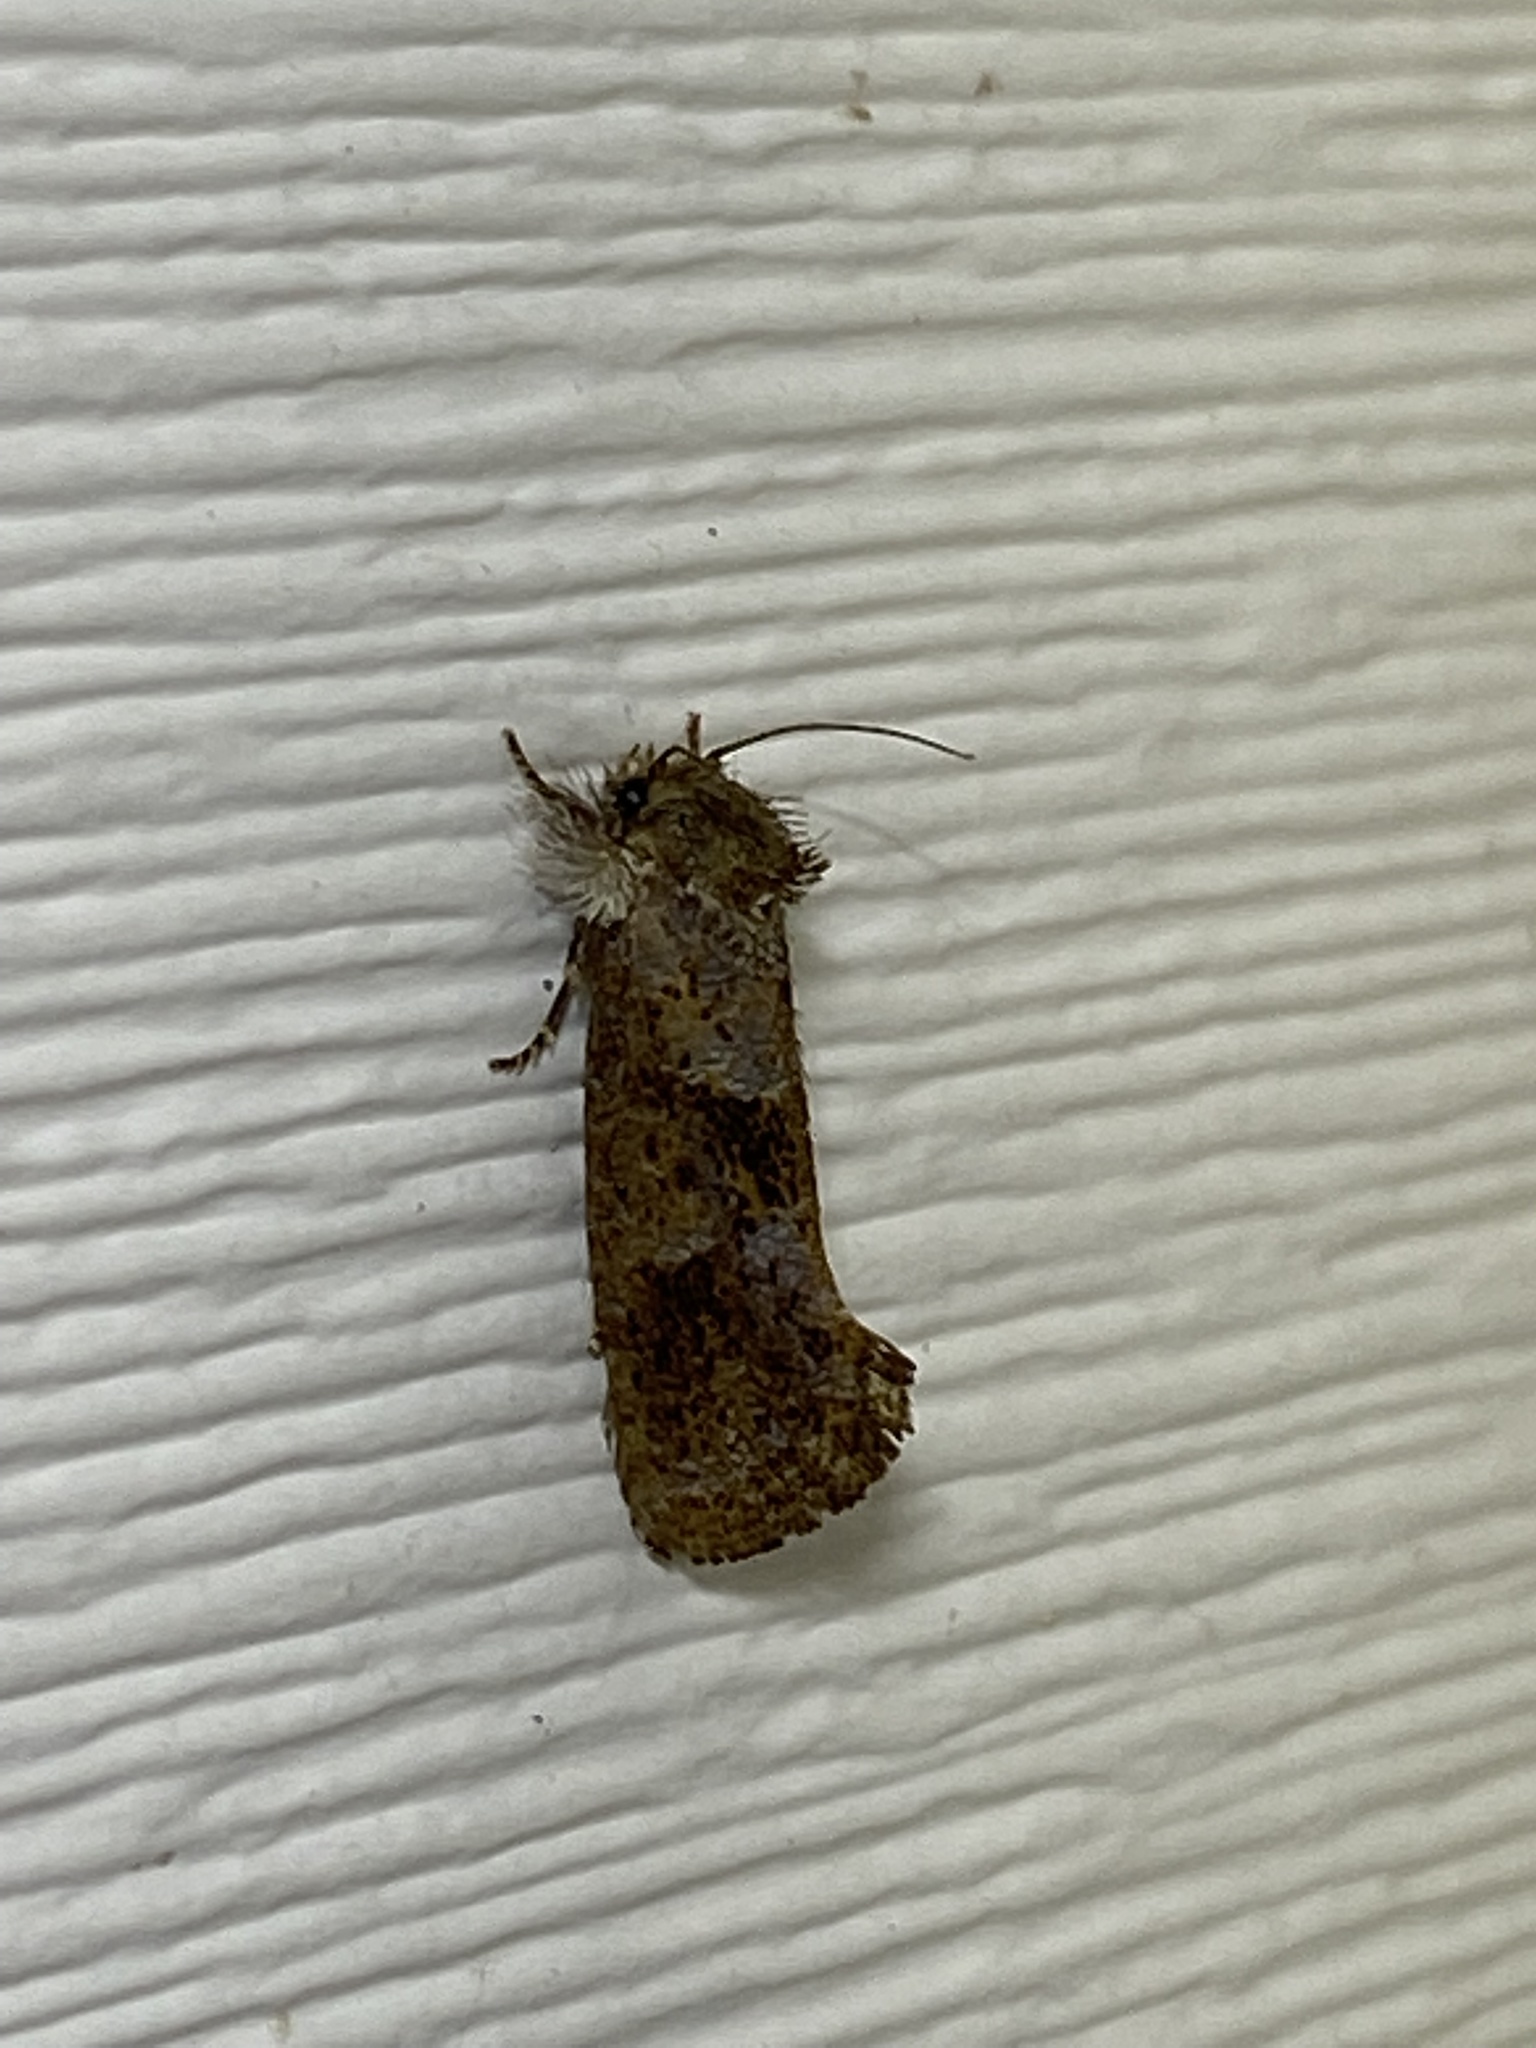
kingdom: Animalia
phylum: Arthropoda
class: Insecta
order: Lepidoptera
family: Tineidae
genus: Acrolophus
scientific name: Acrolophus panamae
